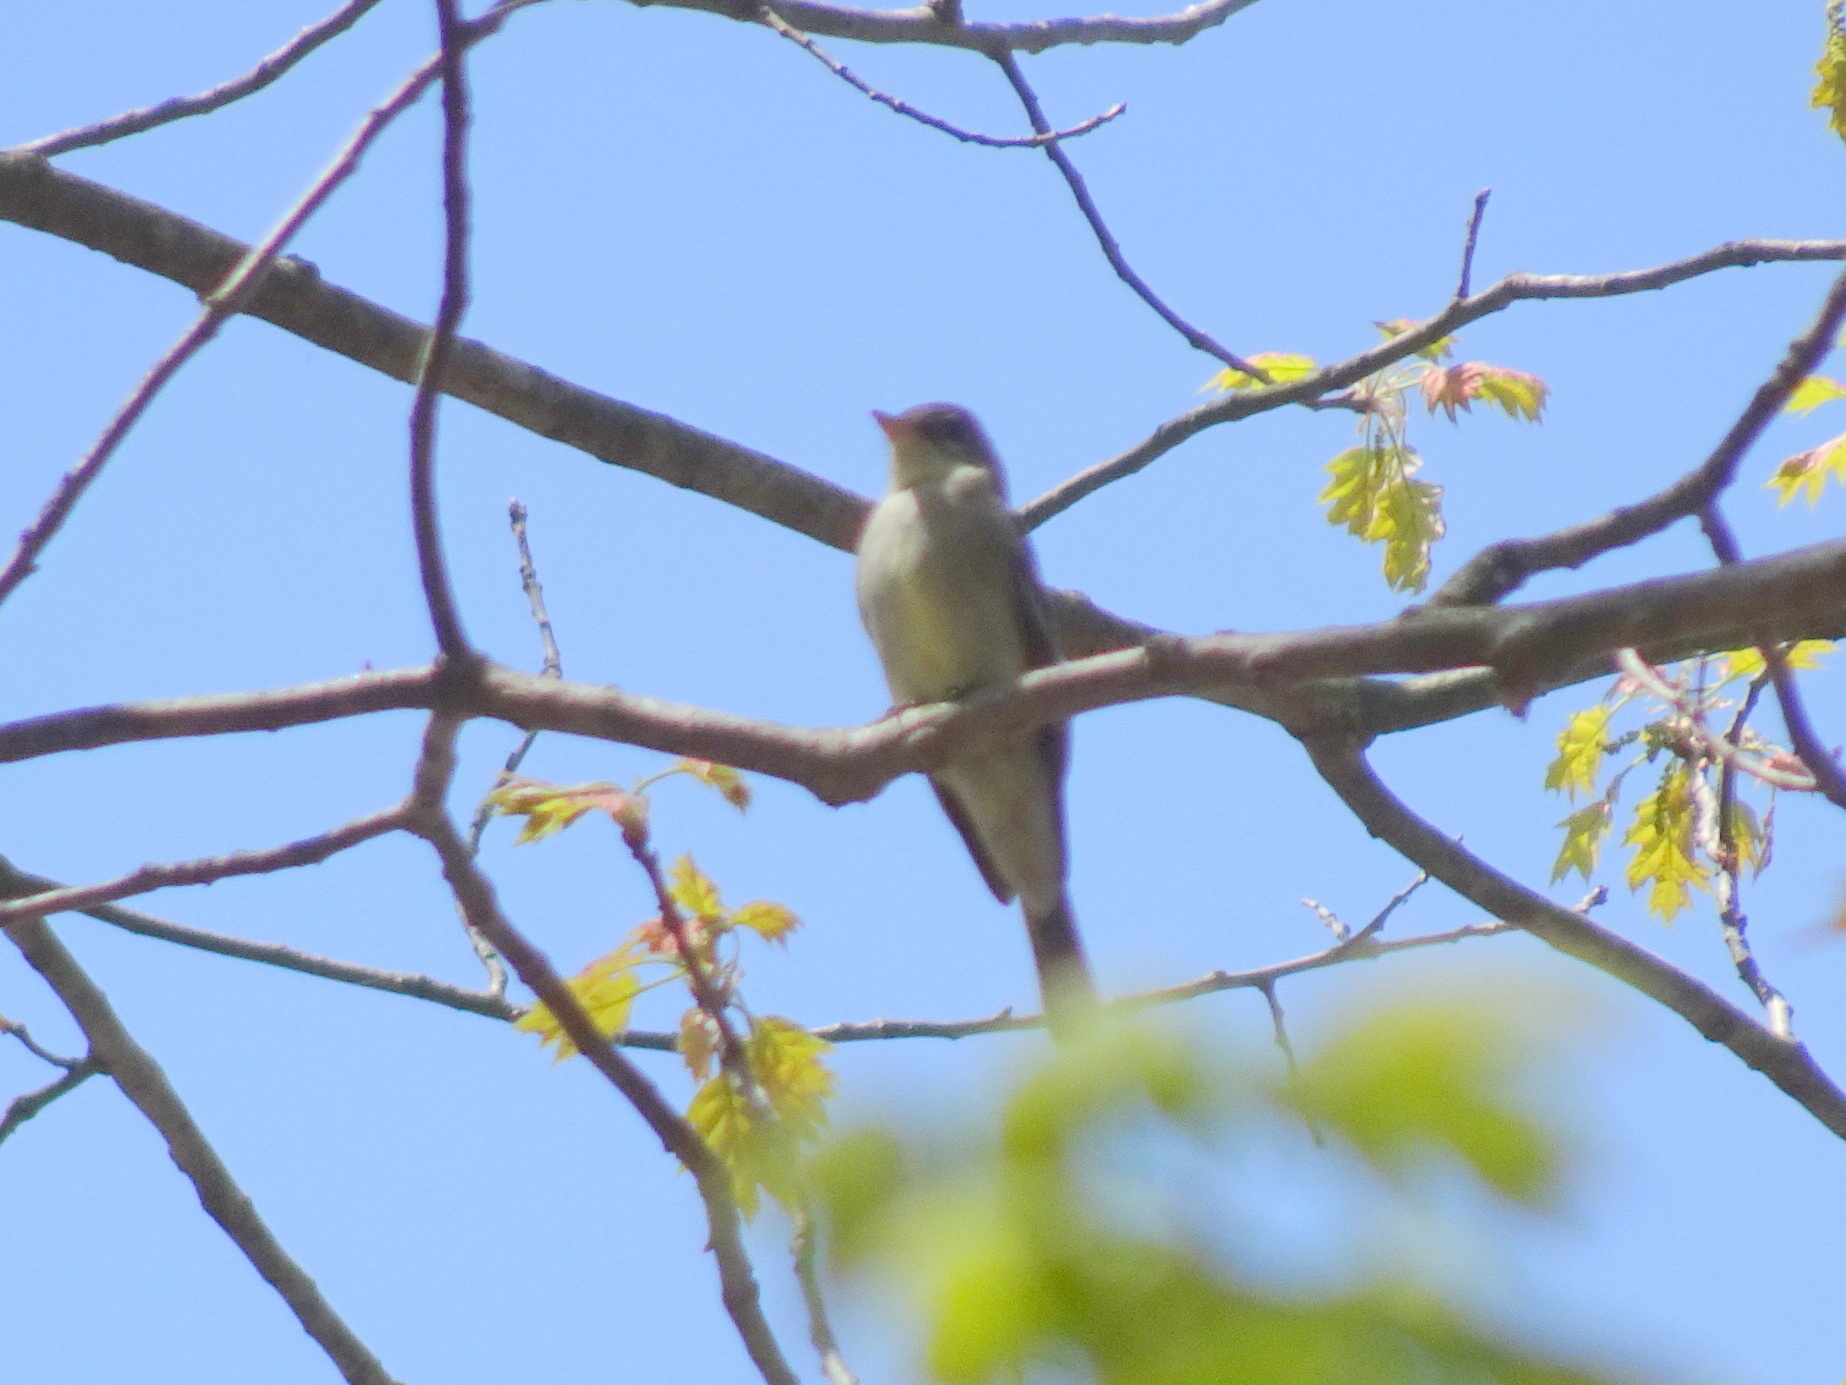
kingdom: Animalia
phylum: Chordata
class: Aves
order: Passeriformes
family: Tyrannidae
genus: Contopus
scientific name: Contopus virens
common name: Eastern wood-pewee
